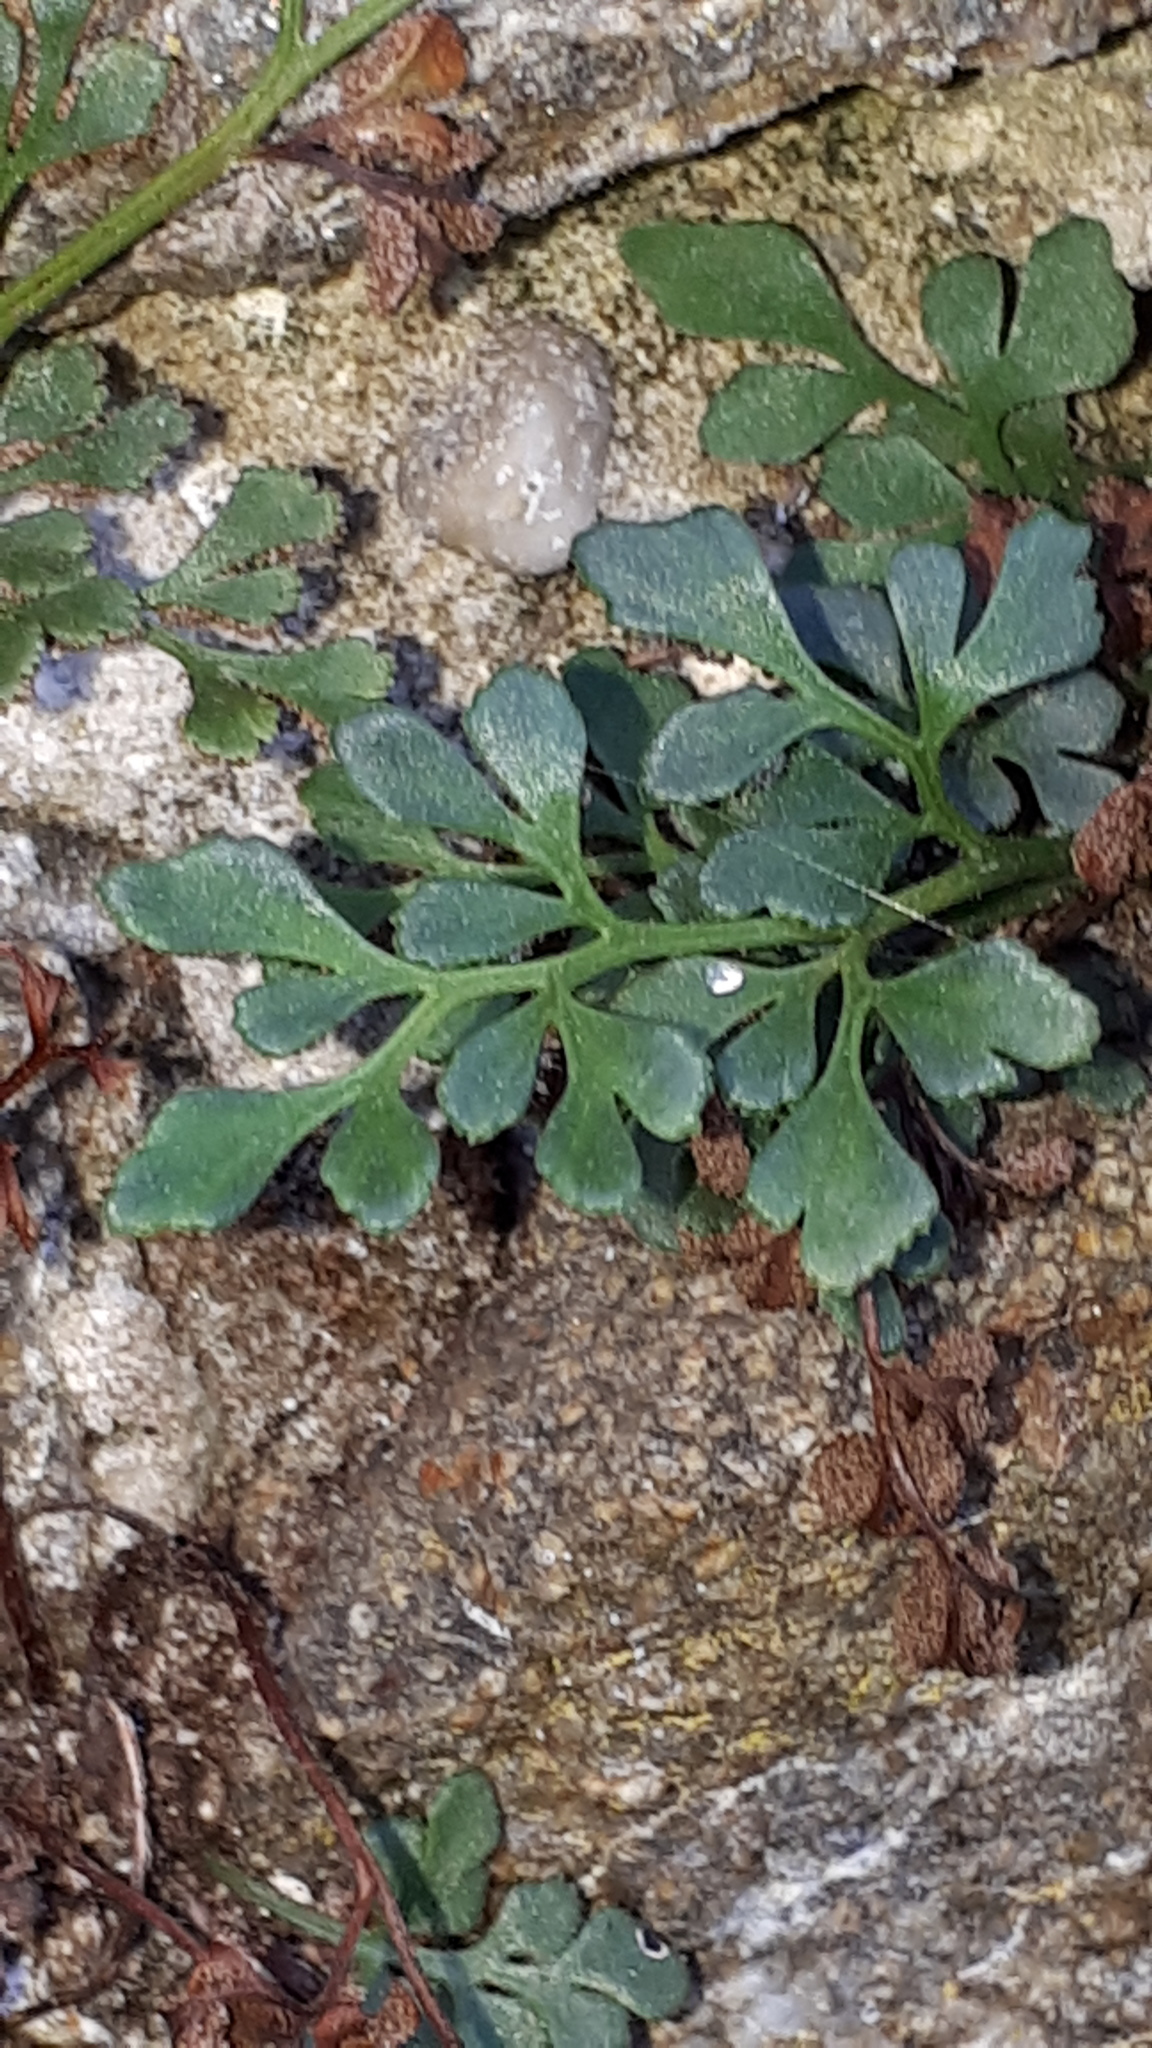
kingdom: Plantae
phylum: Tracheophyta
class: Polypodiopsida
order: Polypodiales
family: Aspleniaceae
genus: Asplenium
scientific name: Asplenium ruta-muraria
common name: Wall-rue
